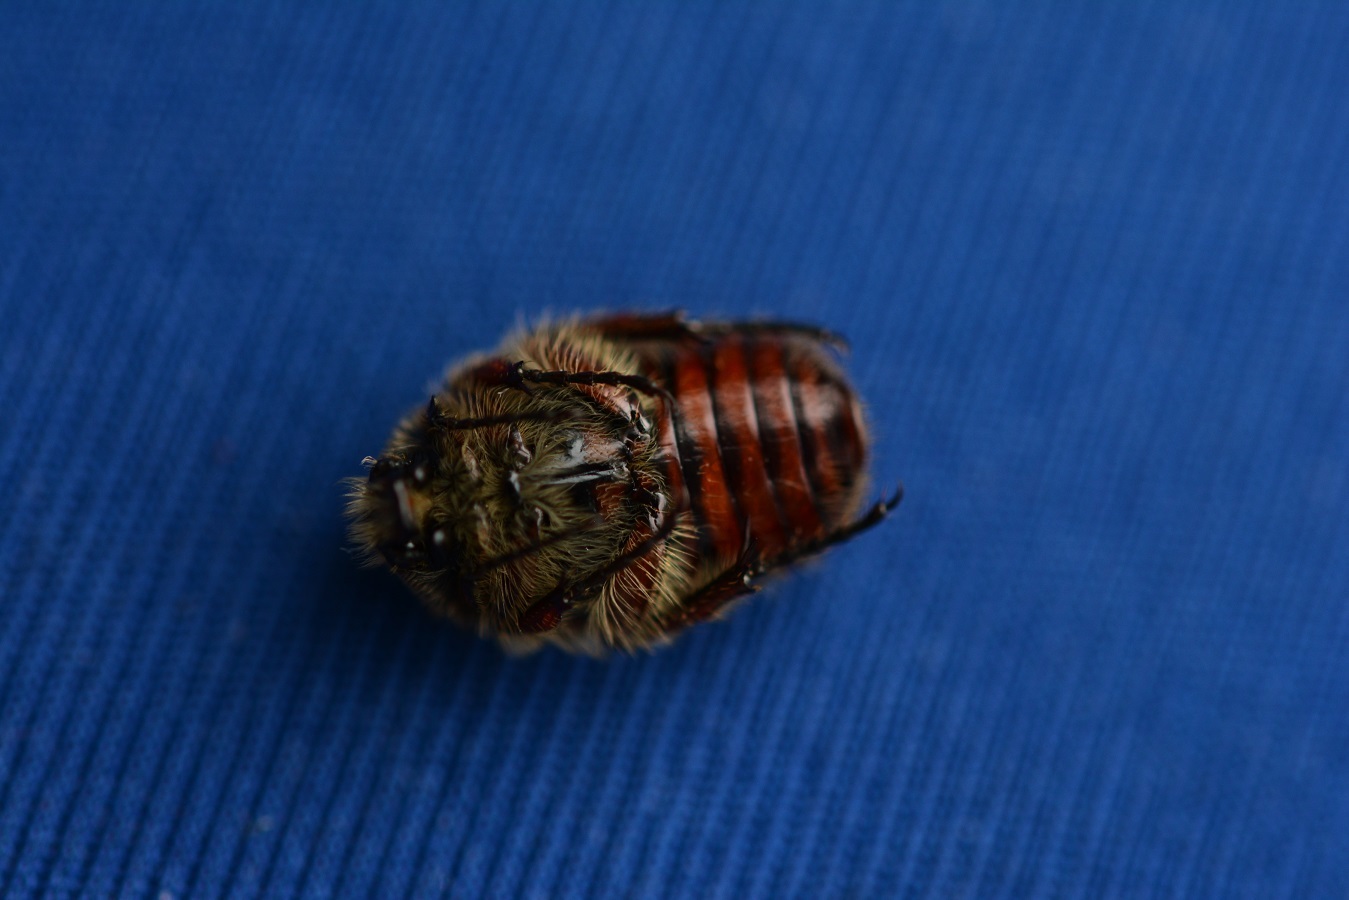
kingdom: Animalia
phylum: Arthropoda
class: Insecta
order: Coleoptera
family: Scarabaeidae
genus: Euphoria
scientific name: Euphoria lacandona
